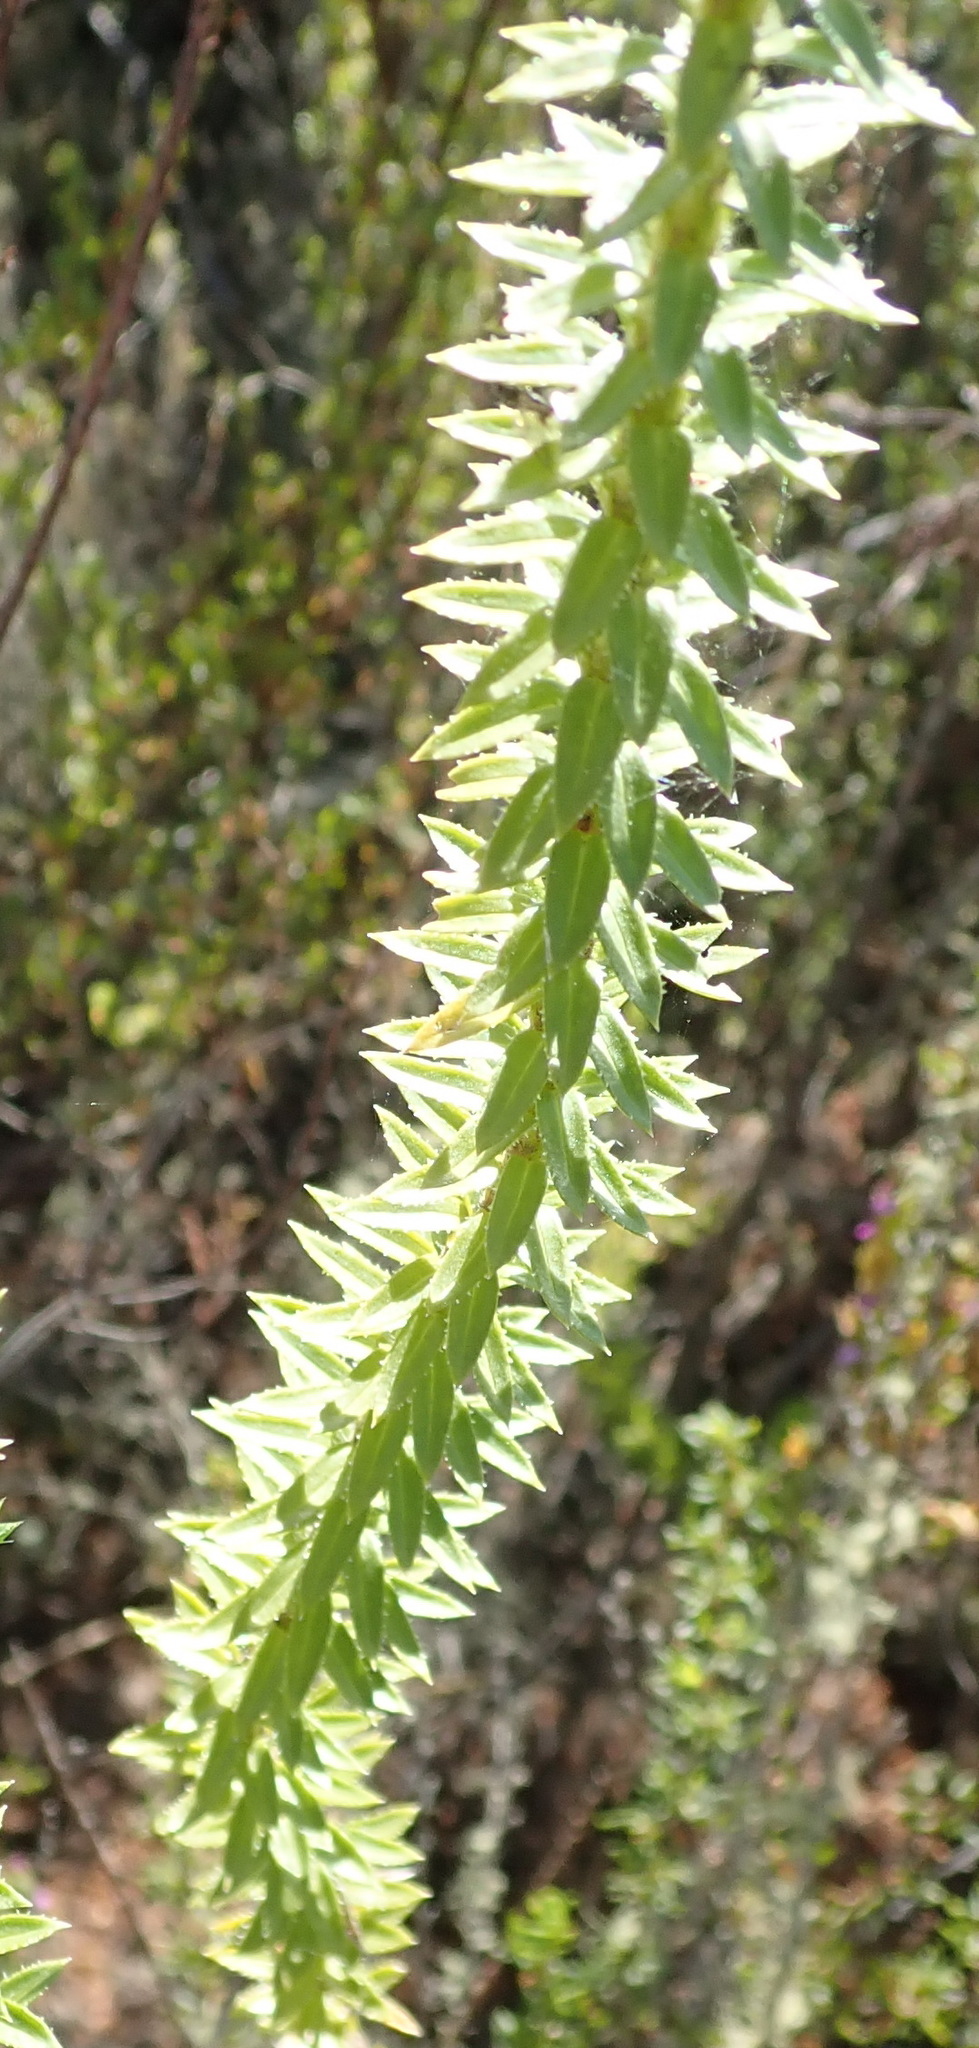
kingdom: Plantae
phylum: Tracheophyta
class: Magnoliopsida
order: Asterales
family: Asteraceae
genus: Felicia
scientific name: Felicia echinata
